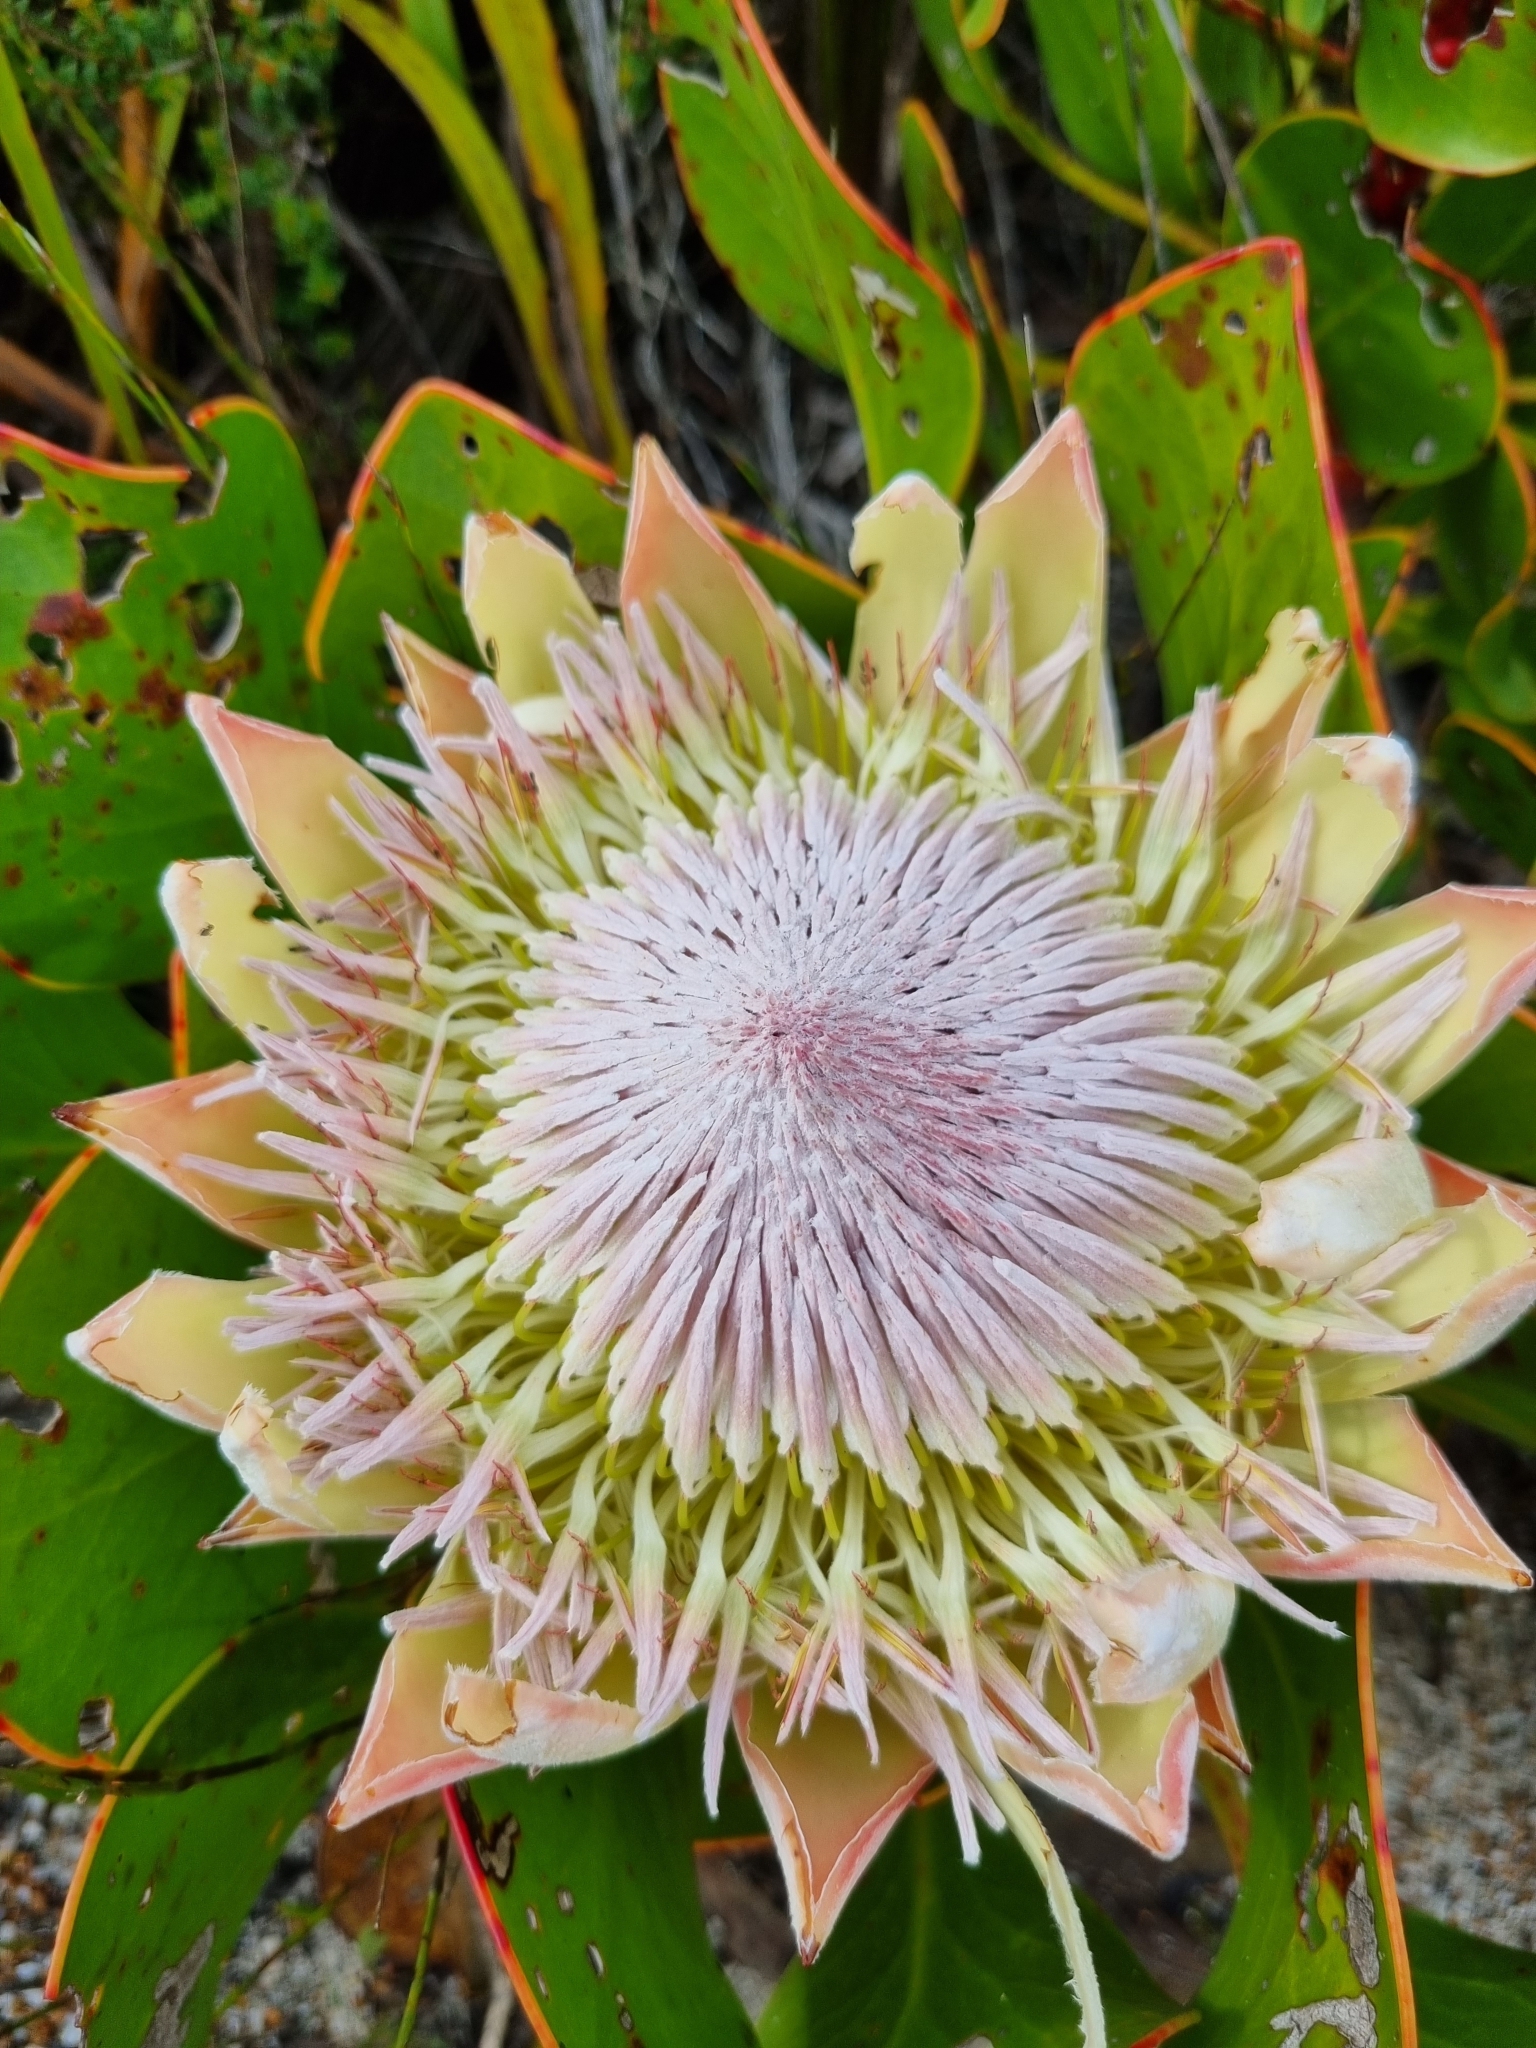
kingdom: Plantae
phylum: Tracheophyta
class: Magnoliopsida
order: Proteales
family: Proteaceae
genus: Protea
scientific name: Protea cynaroides
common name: King protea
